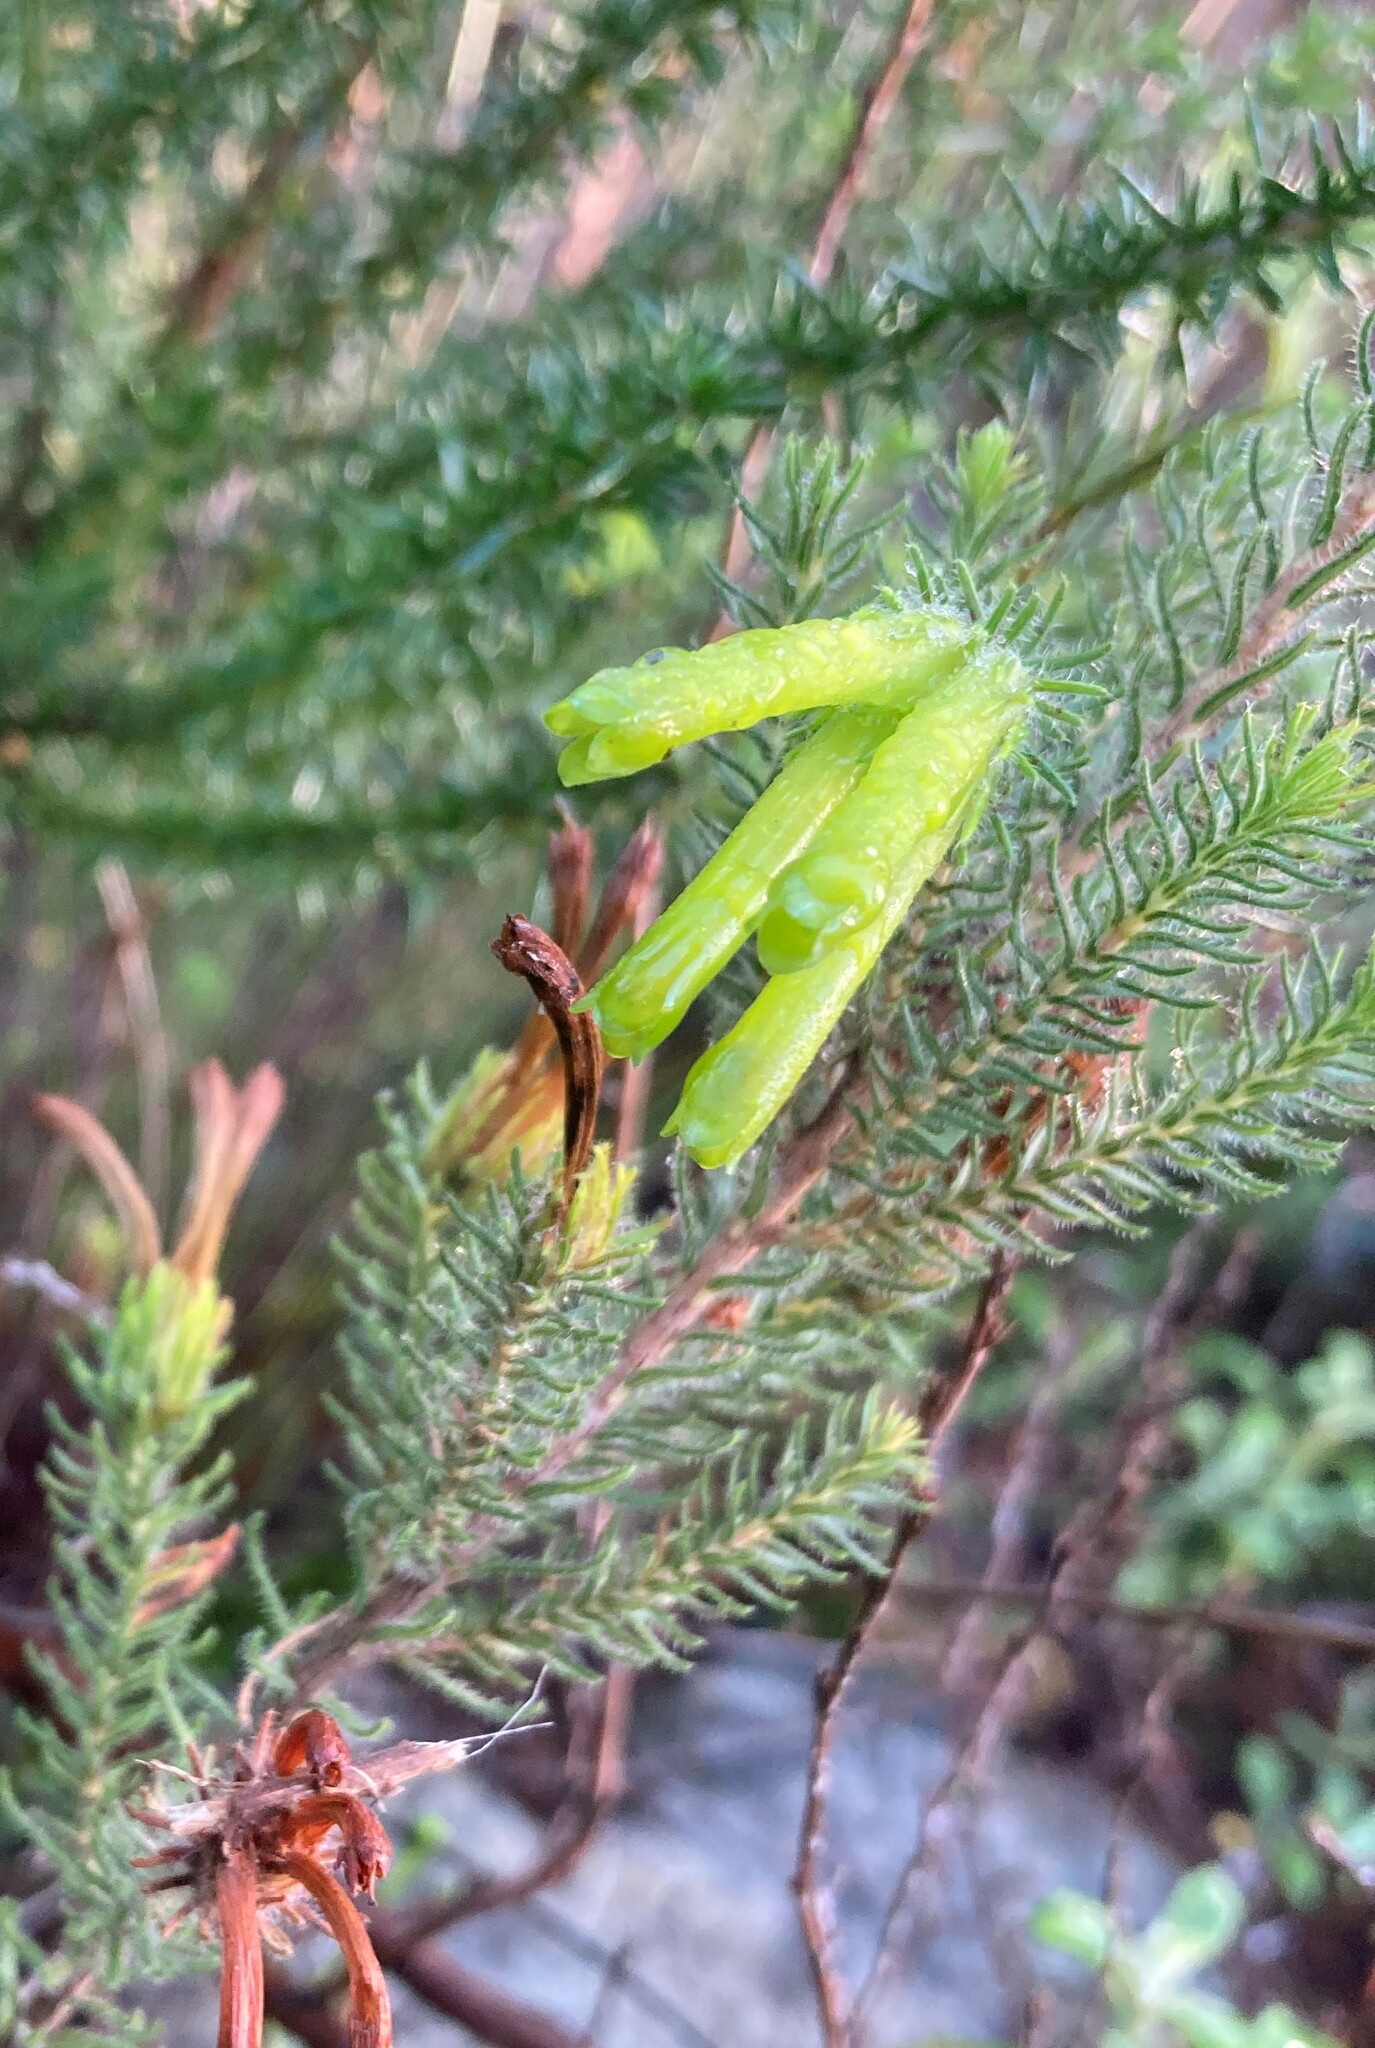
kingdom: Plantae
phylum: Tracheophyta
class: Magnoliopsida
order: Ericales
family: Ericaceae
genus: Erica
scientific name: Erica unicolor
